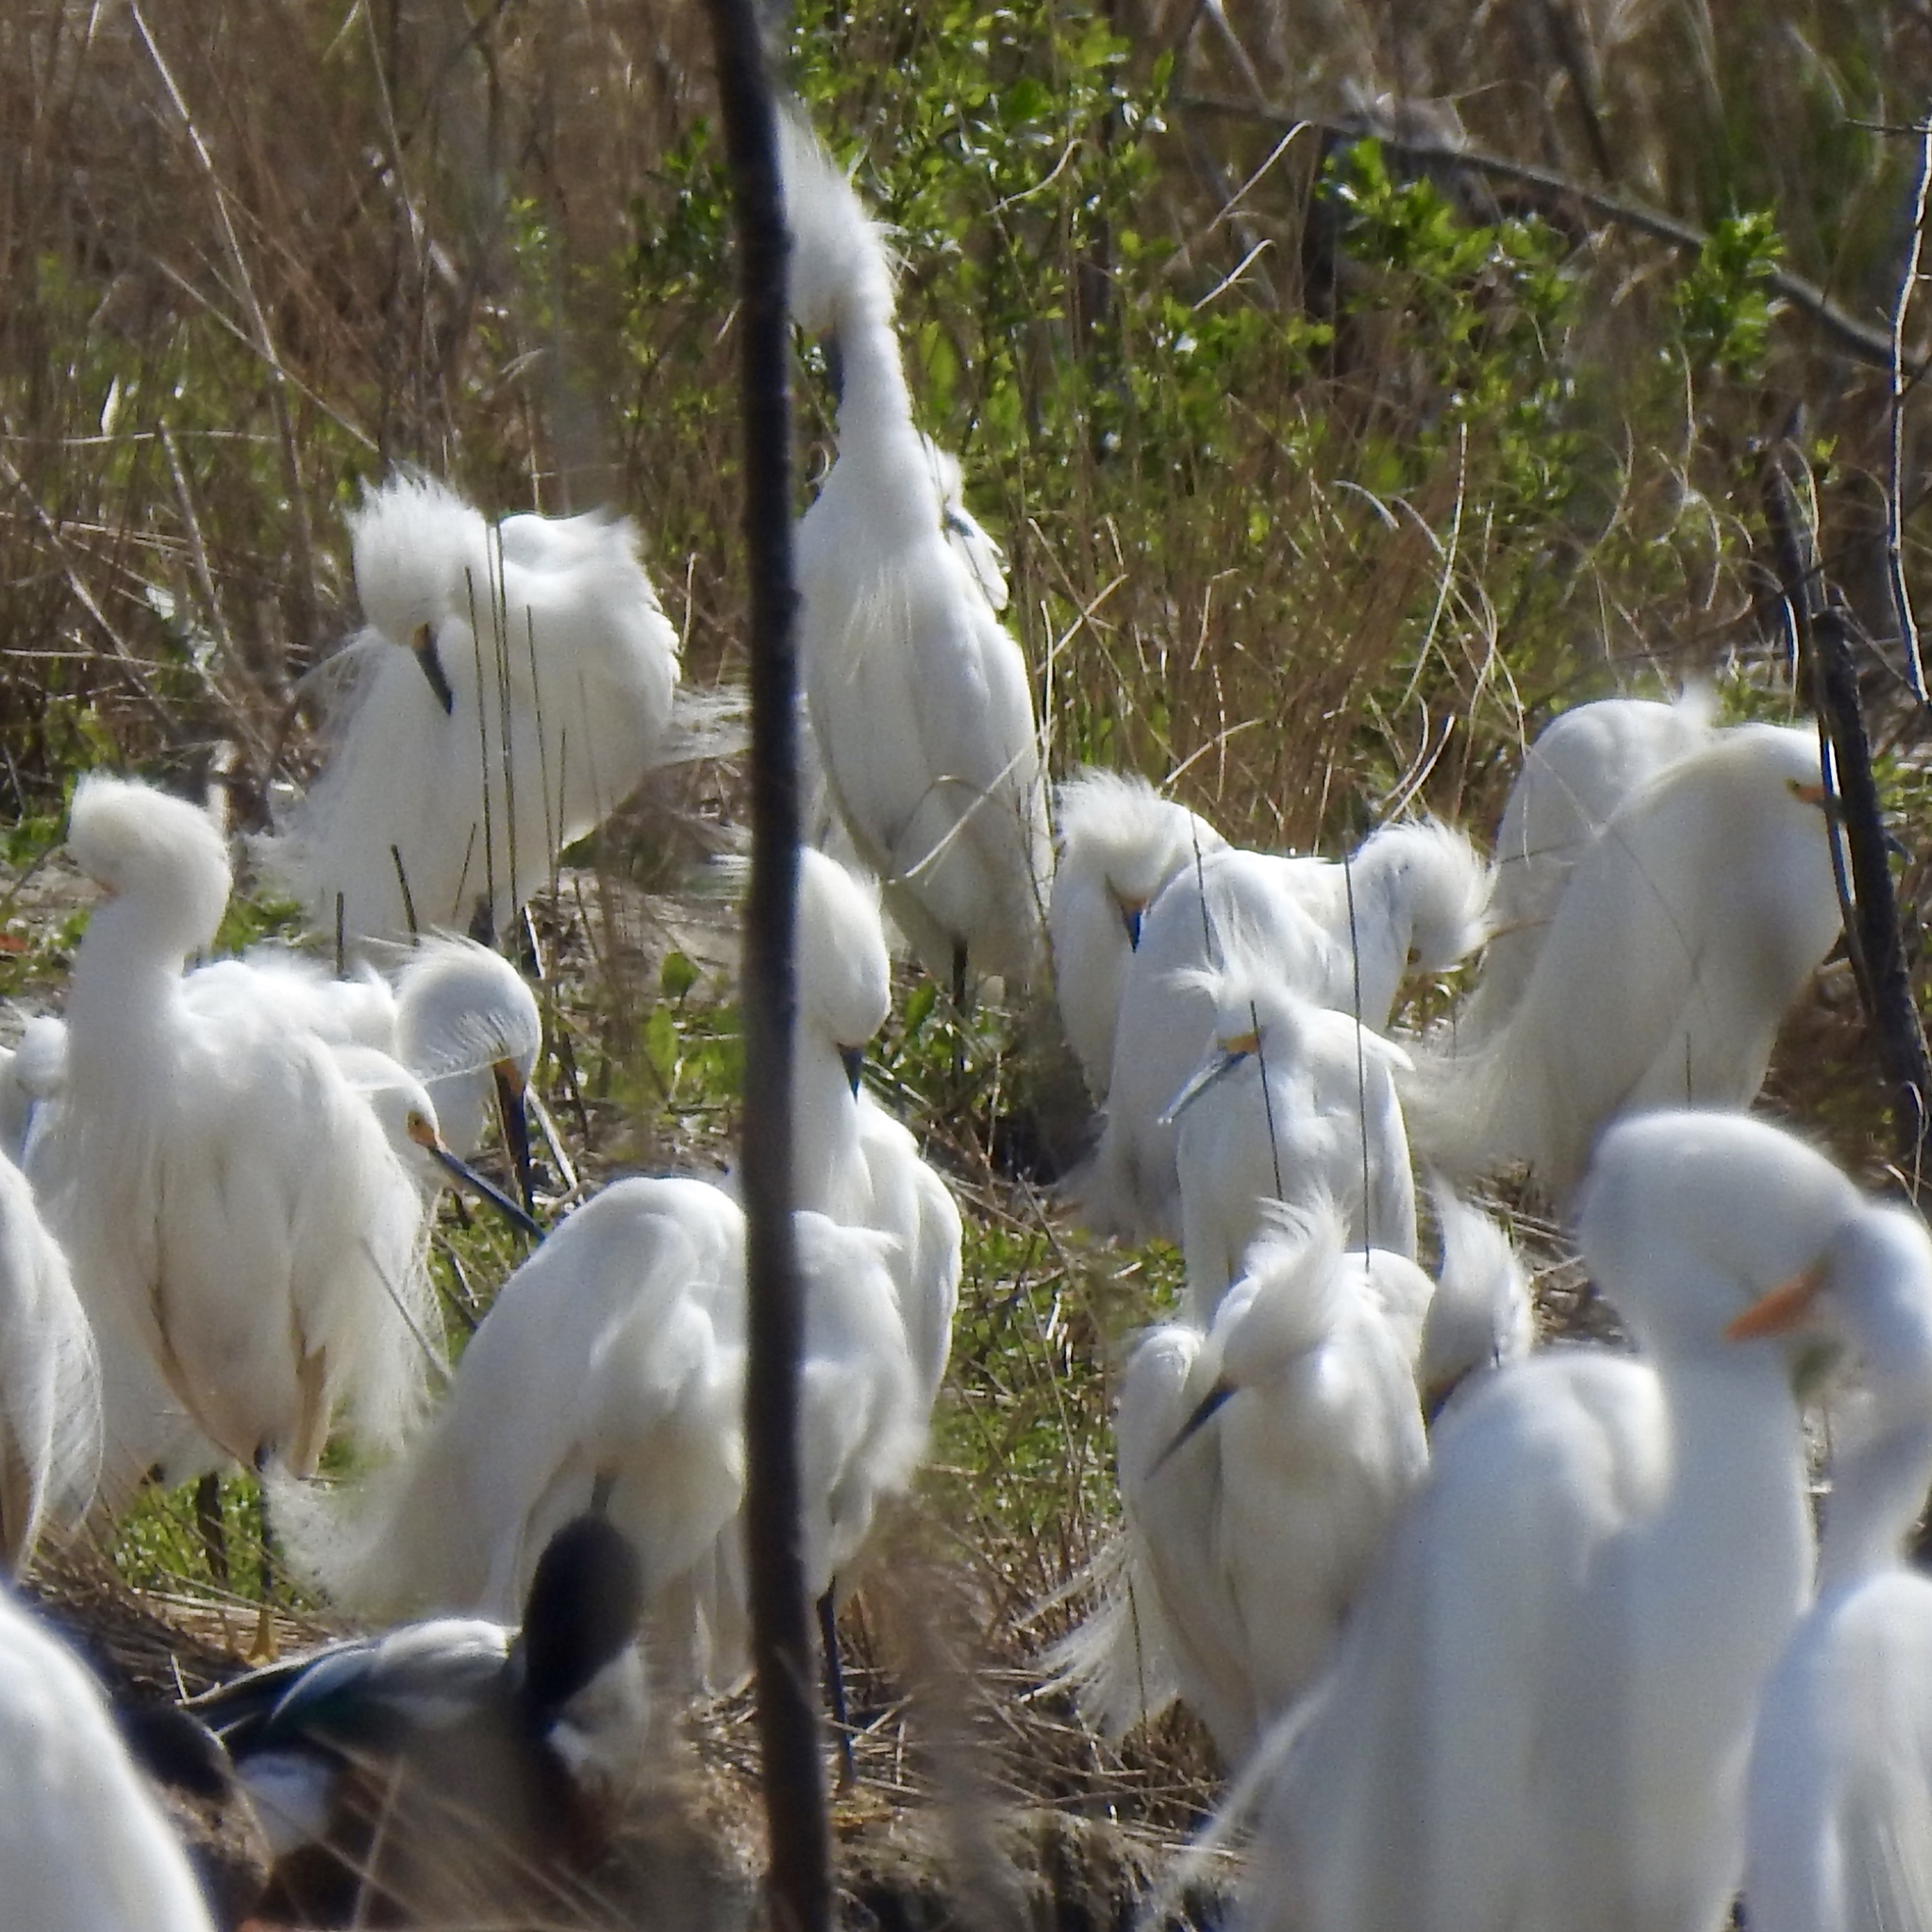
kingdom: Animalia
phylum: Chordata
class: Aves
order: Pelecaniformes
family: Ardeidae
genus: Egretta
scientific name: Egretta thula
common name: Snowy egret
